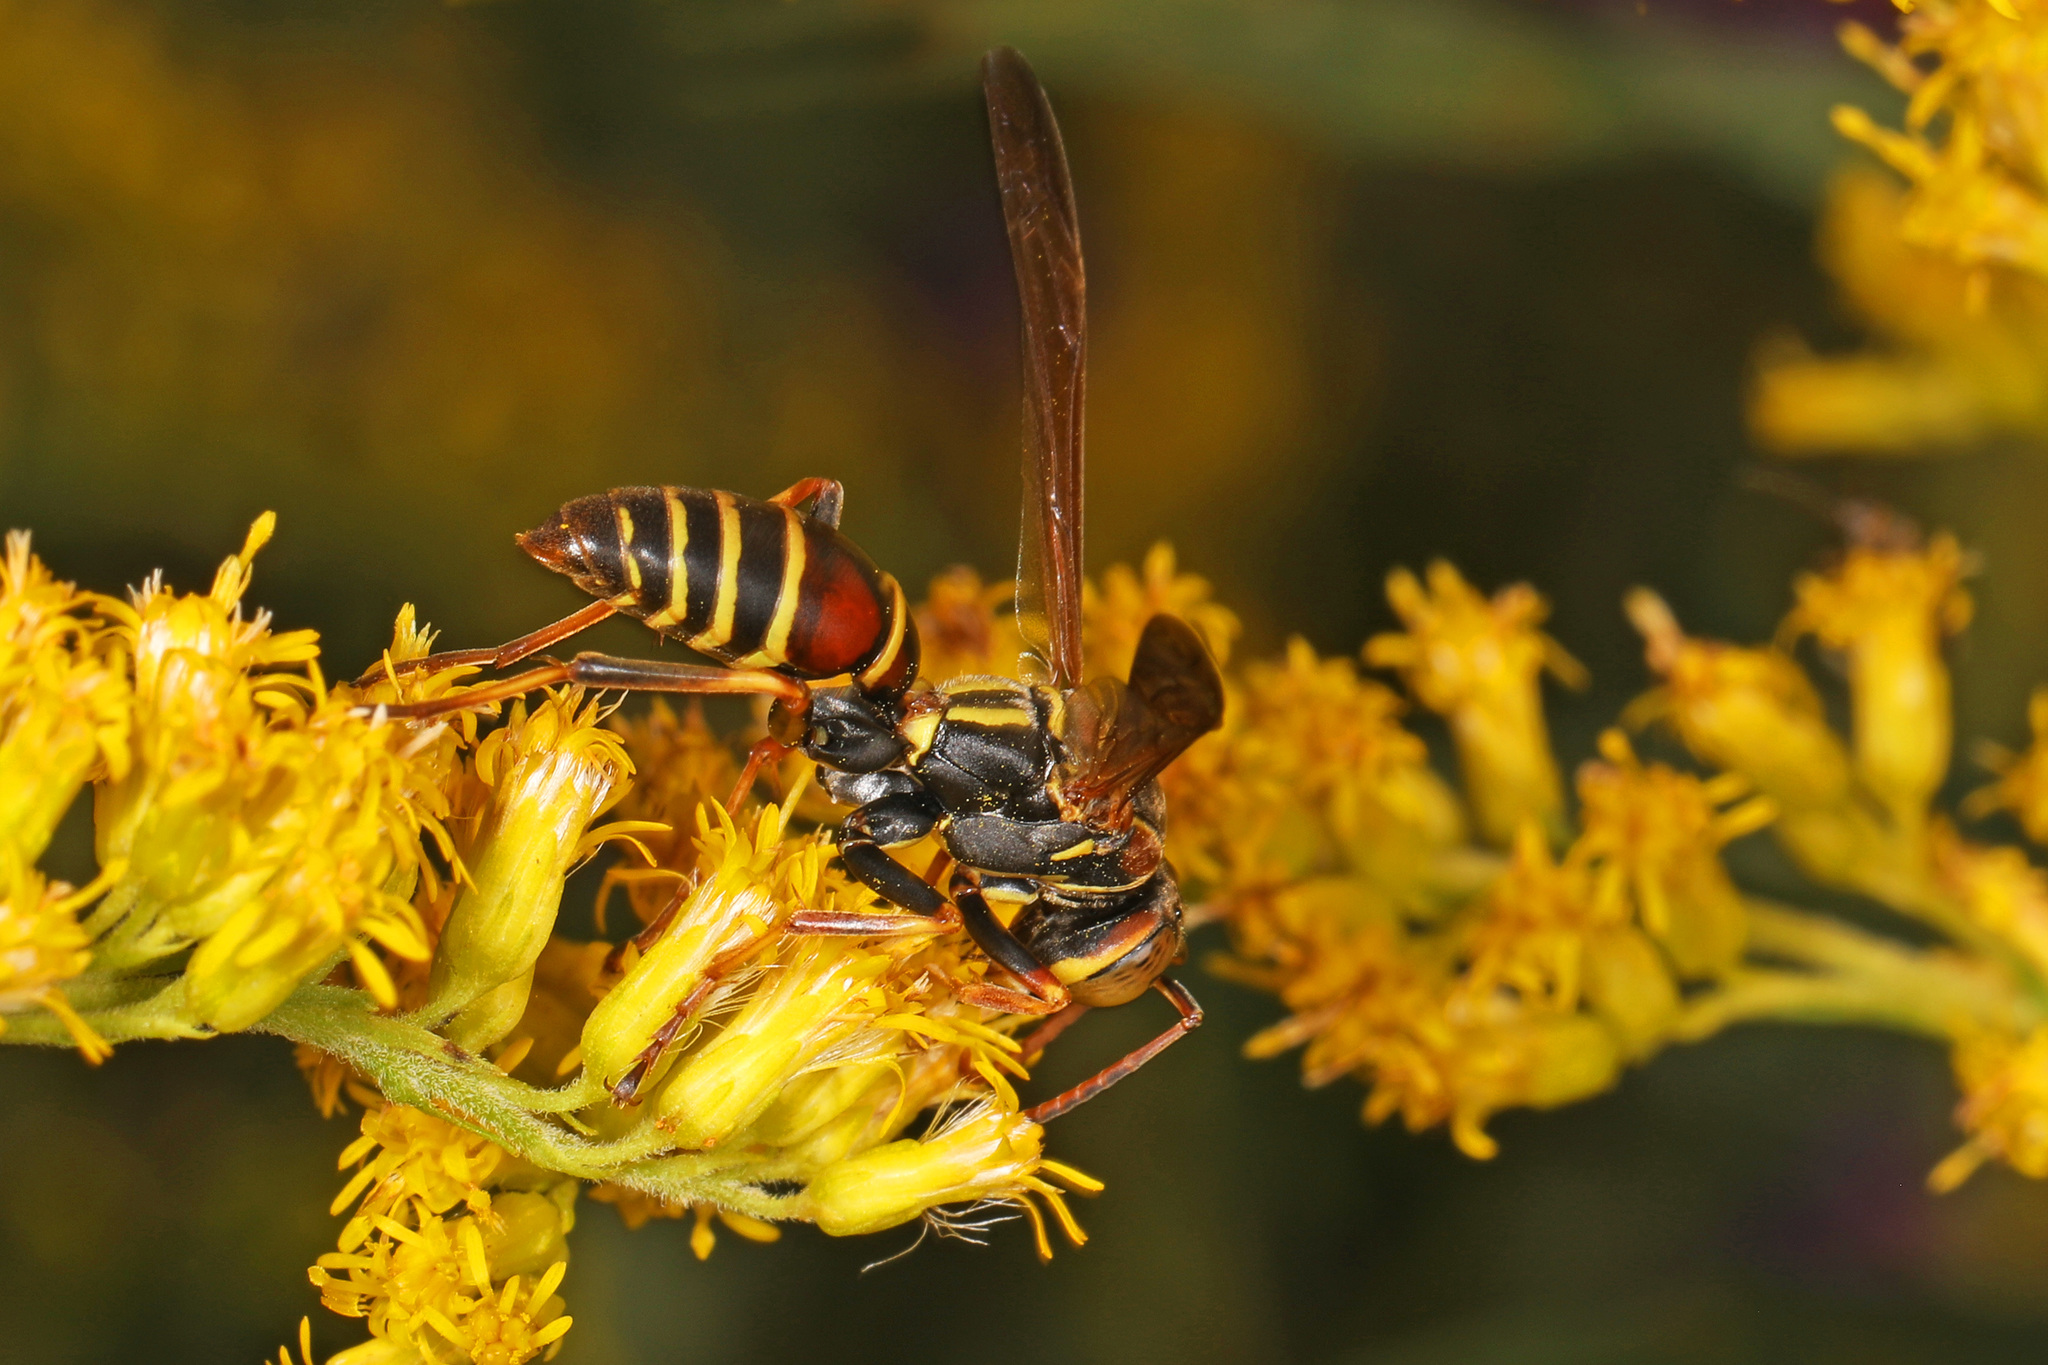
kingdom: Animalia
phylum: Arthropoda
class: Insecta
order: Hymenoptera
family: Eumenidae
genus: Polistes
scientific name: Polistes dorsalis
